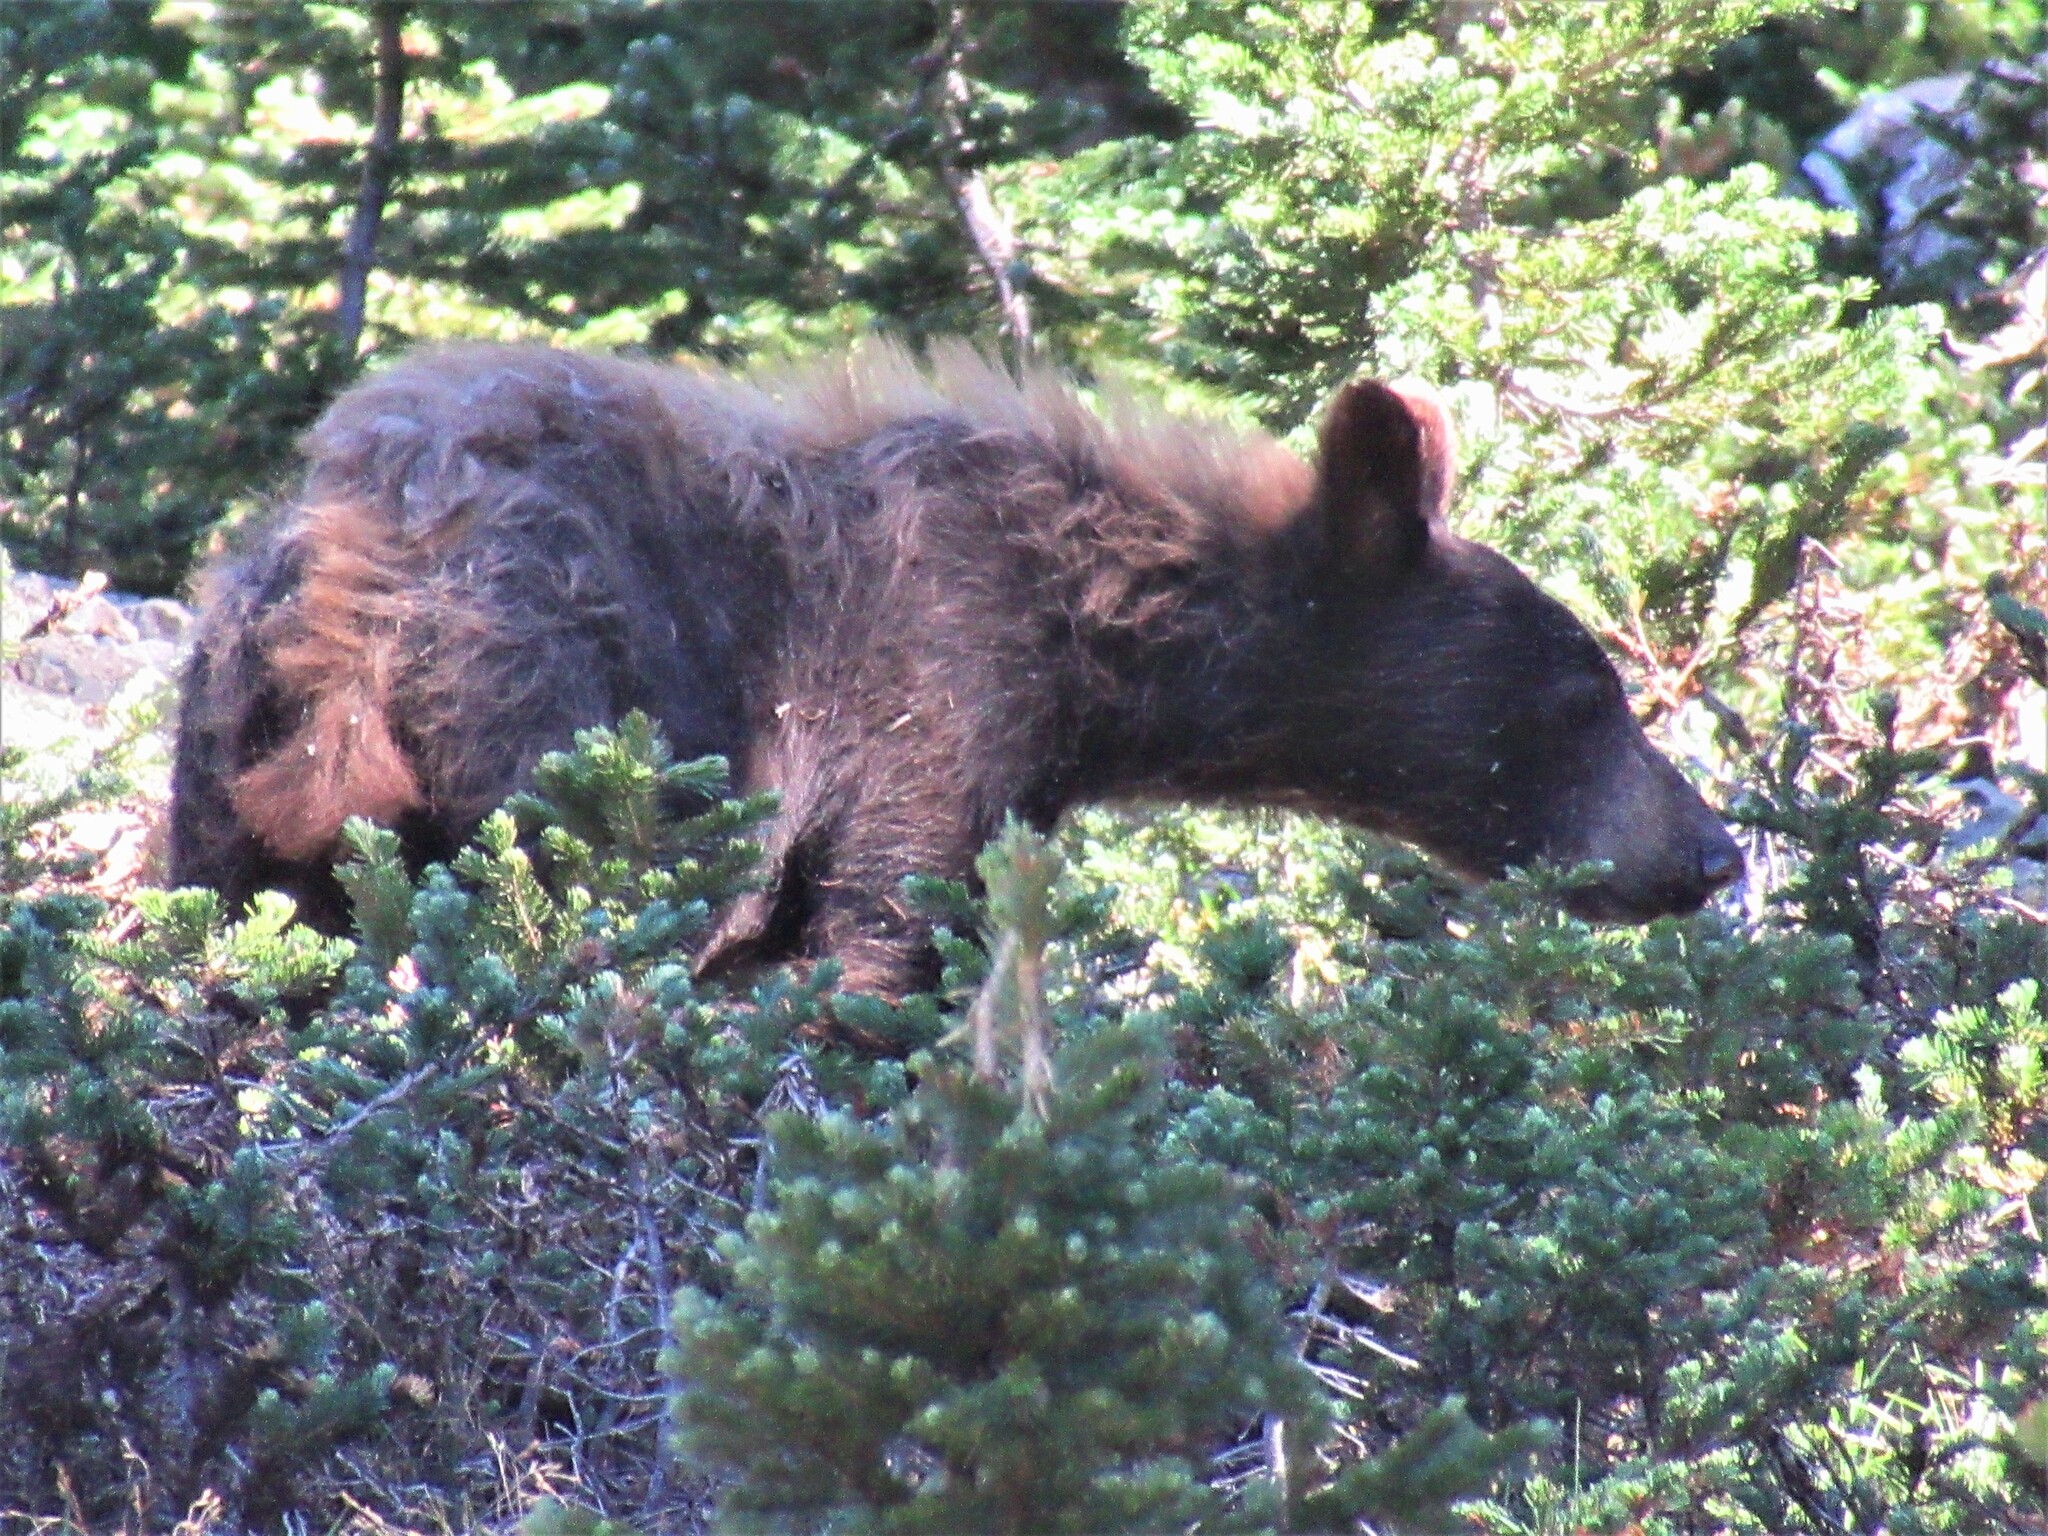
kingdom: Animalia
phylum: Chordata
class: Mammalia
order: Carnivora
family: Ursidae
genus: Ursus
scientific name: Ursus americanus
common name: American black bear
